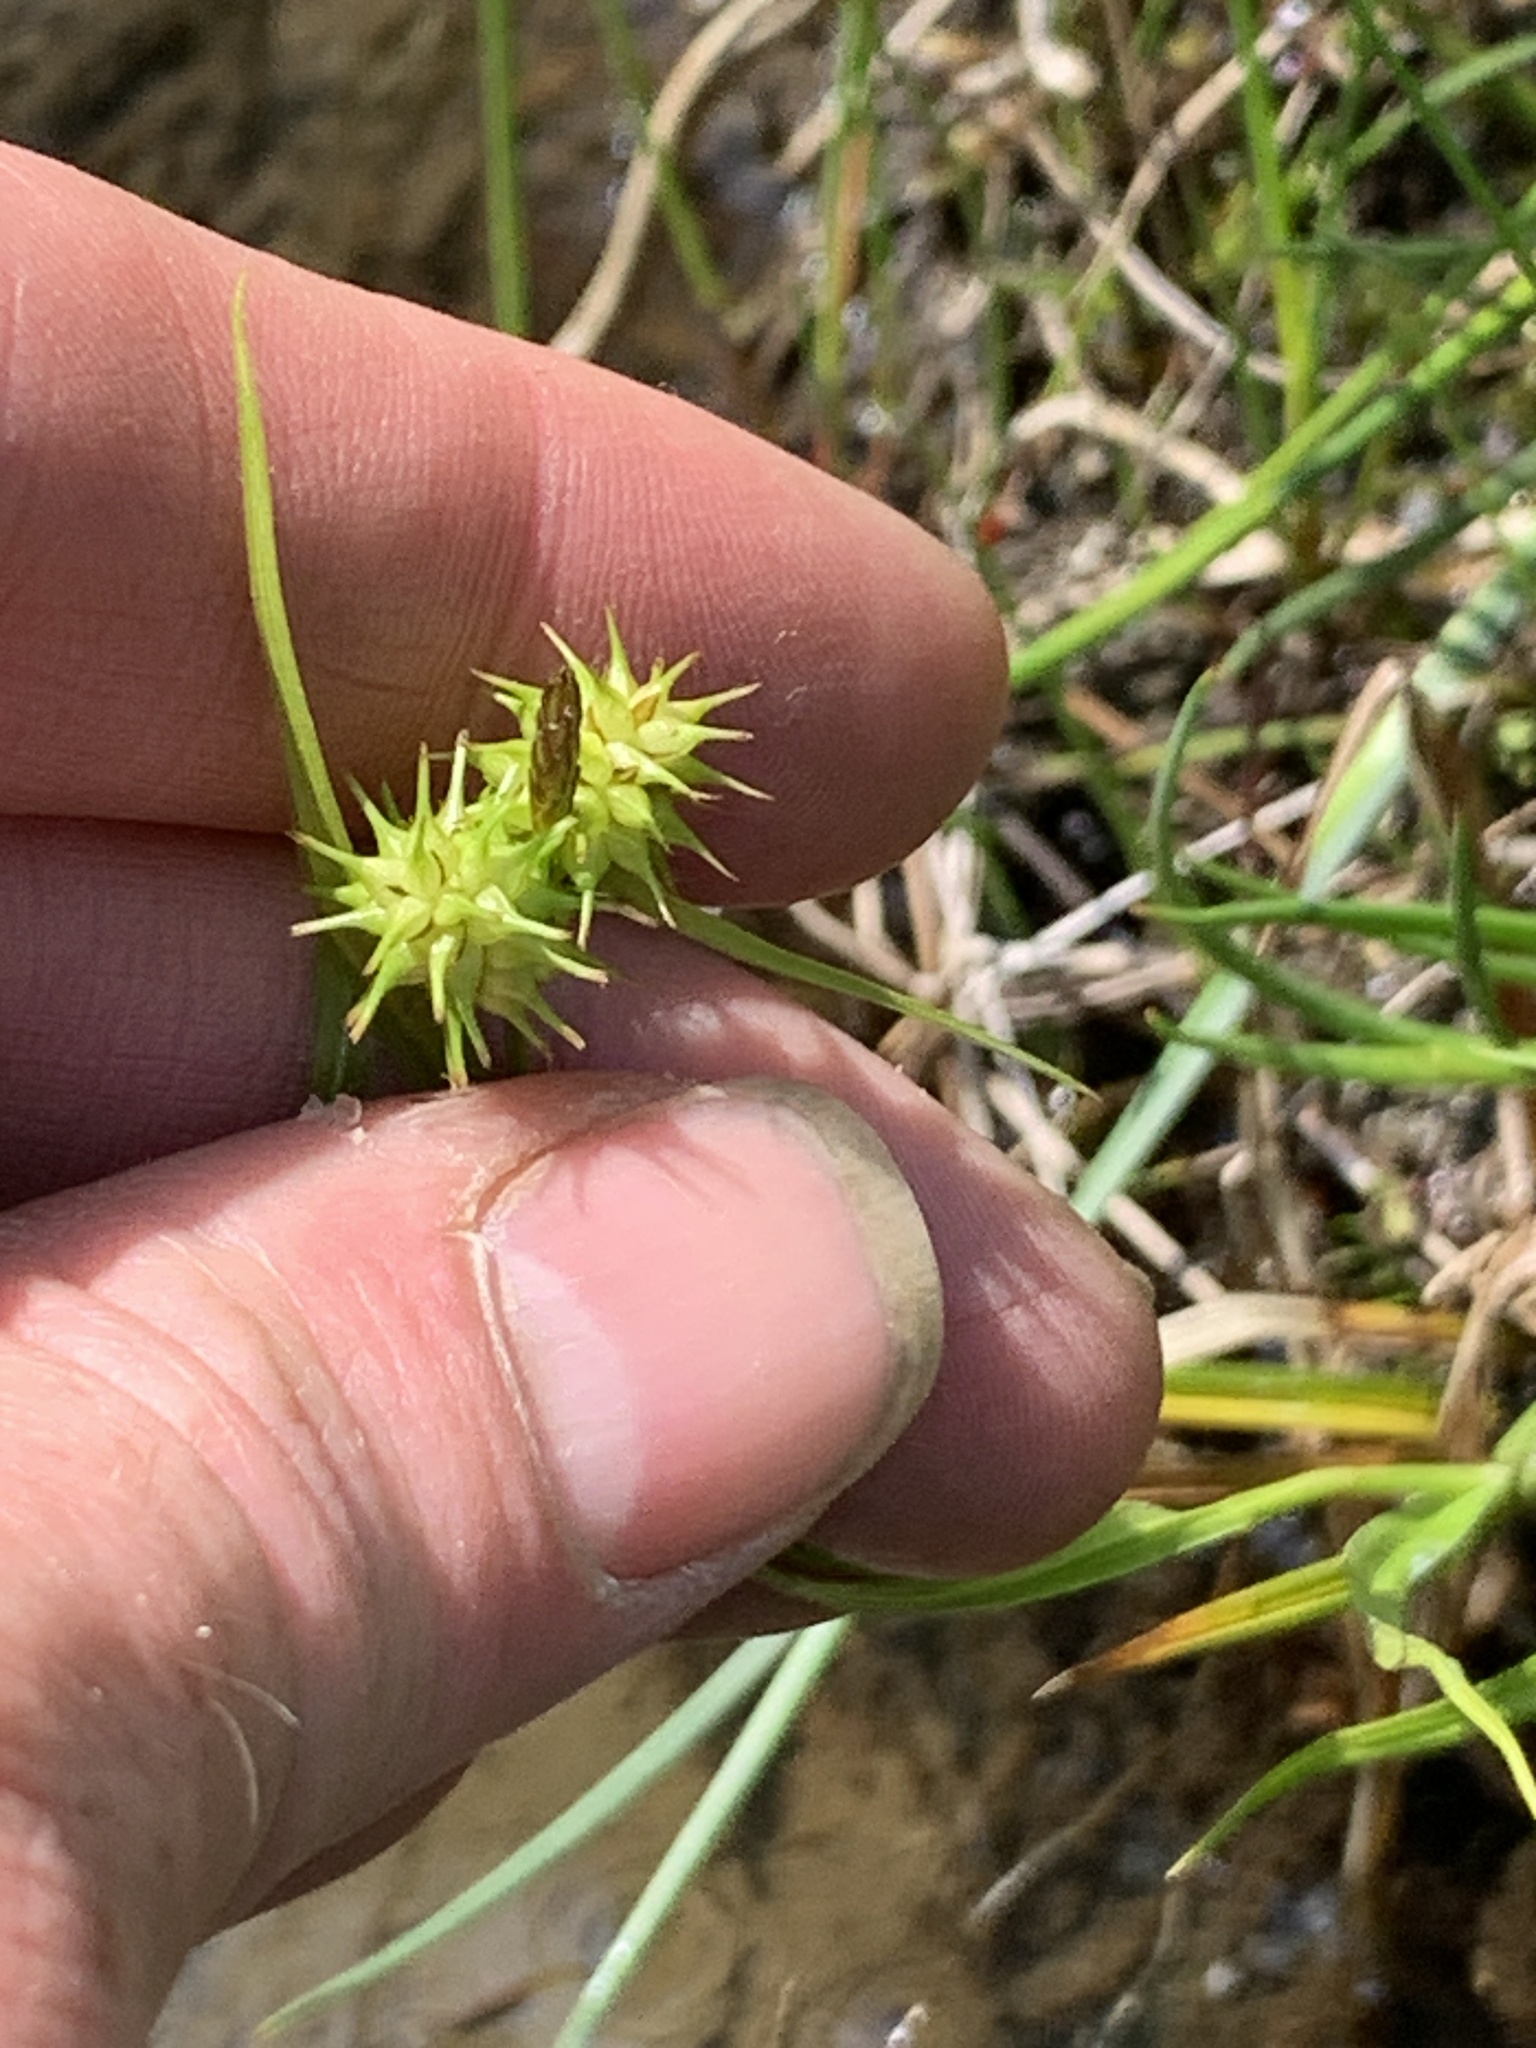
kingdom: Plantae
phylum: Tracheophyta
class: Liliopsida
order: Poales
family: Cyperaceae
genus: Carex
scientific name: Carex flava
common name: Large yellow-sedge
